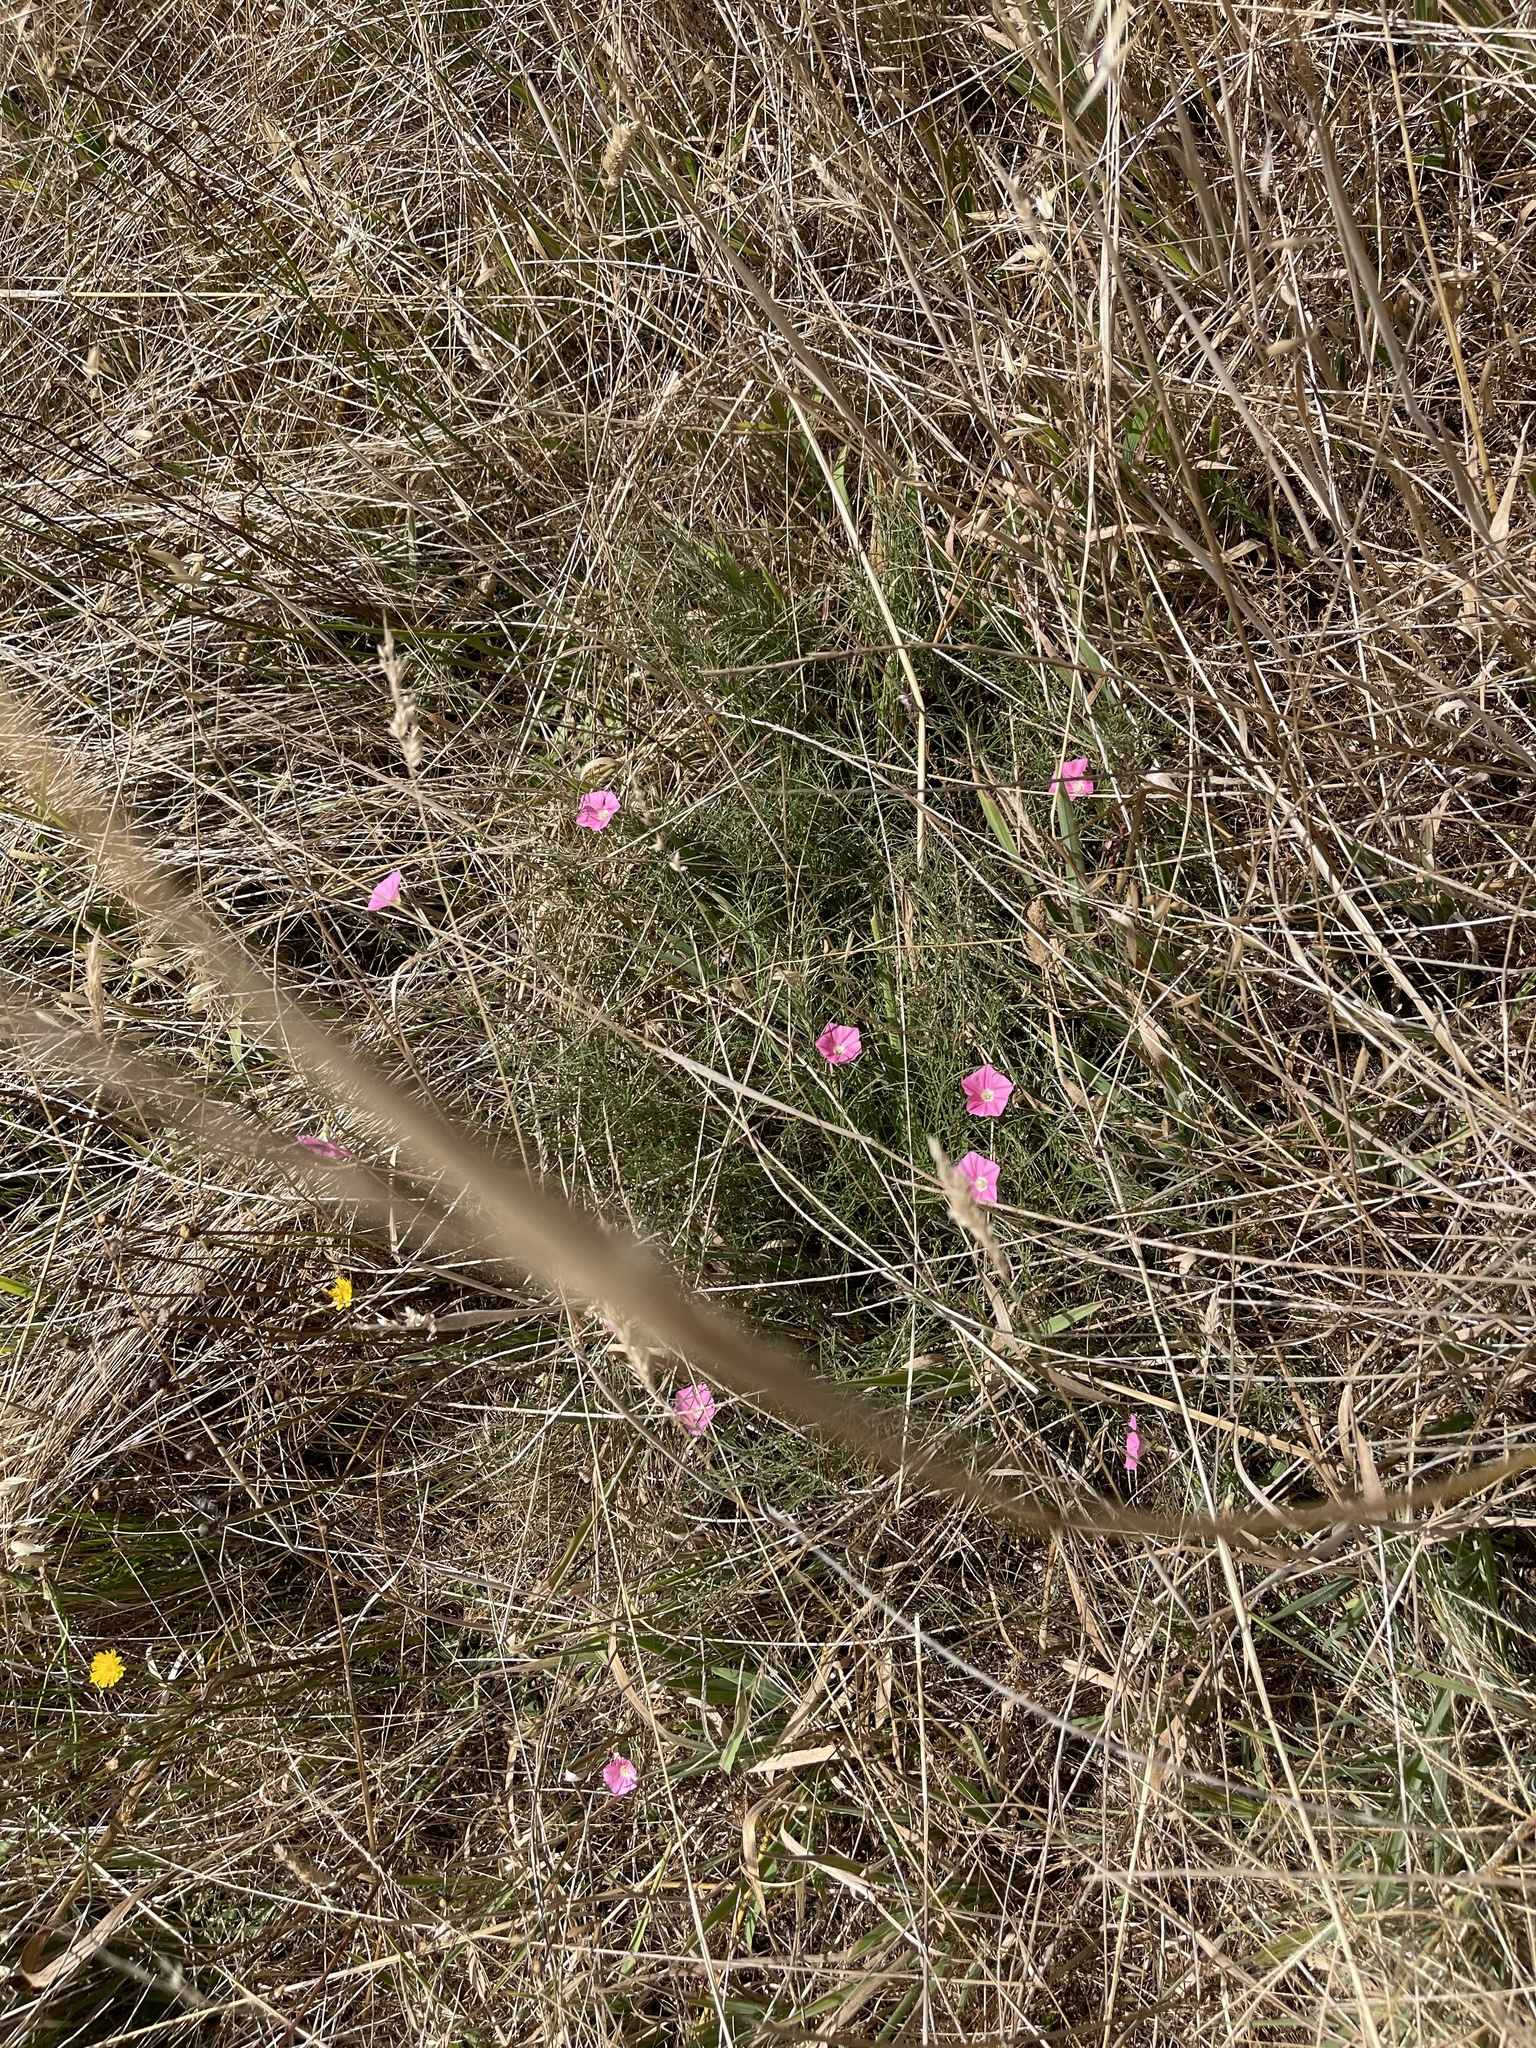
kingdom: Plantae
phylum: Tracheophyta
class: Magnoliopsida
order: Solanales
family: Convolvulaceae
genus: Convolvulus
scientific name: Convolvulus angustissimus
